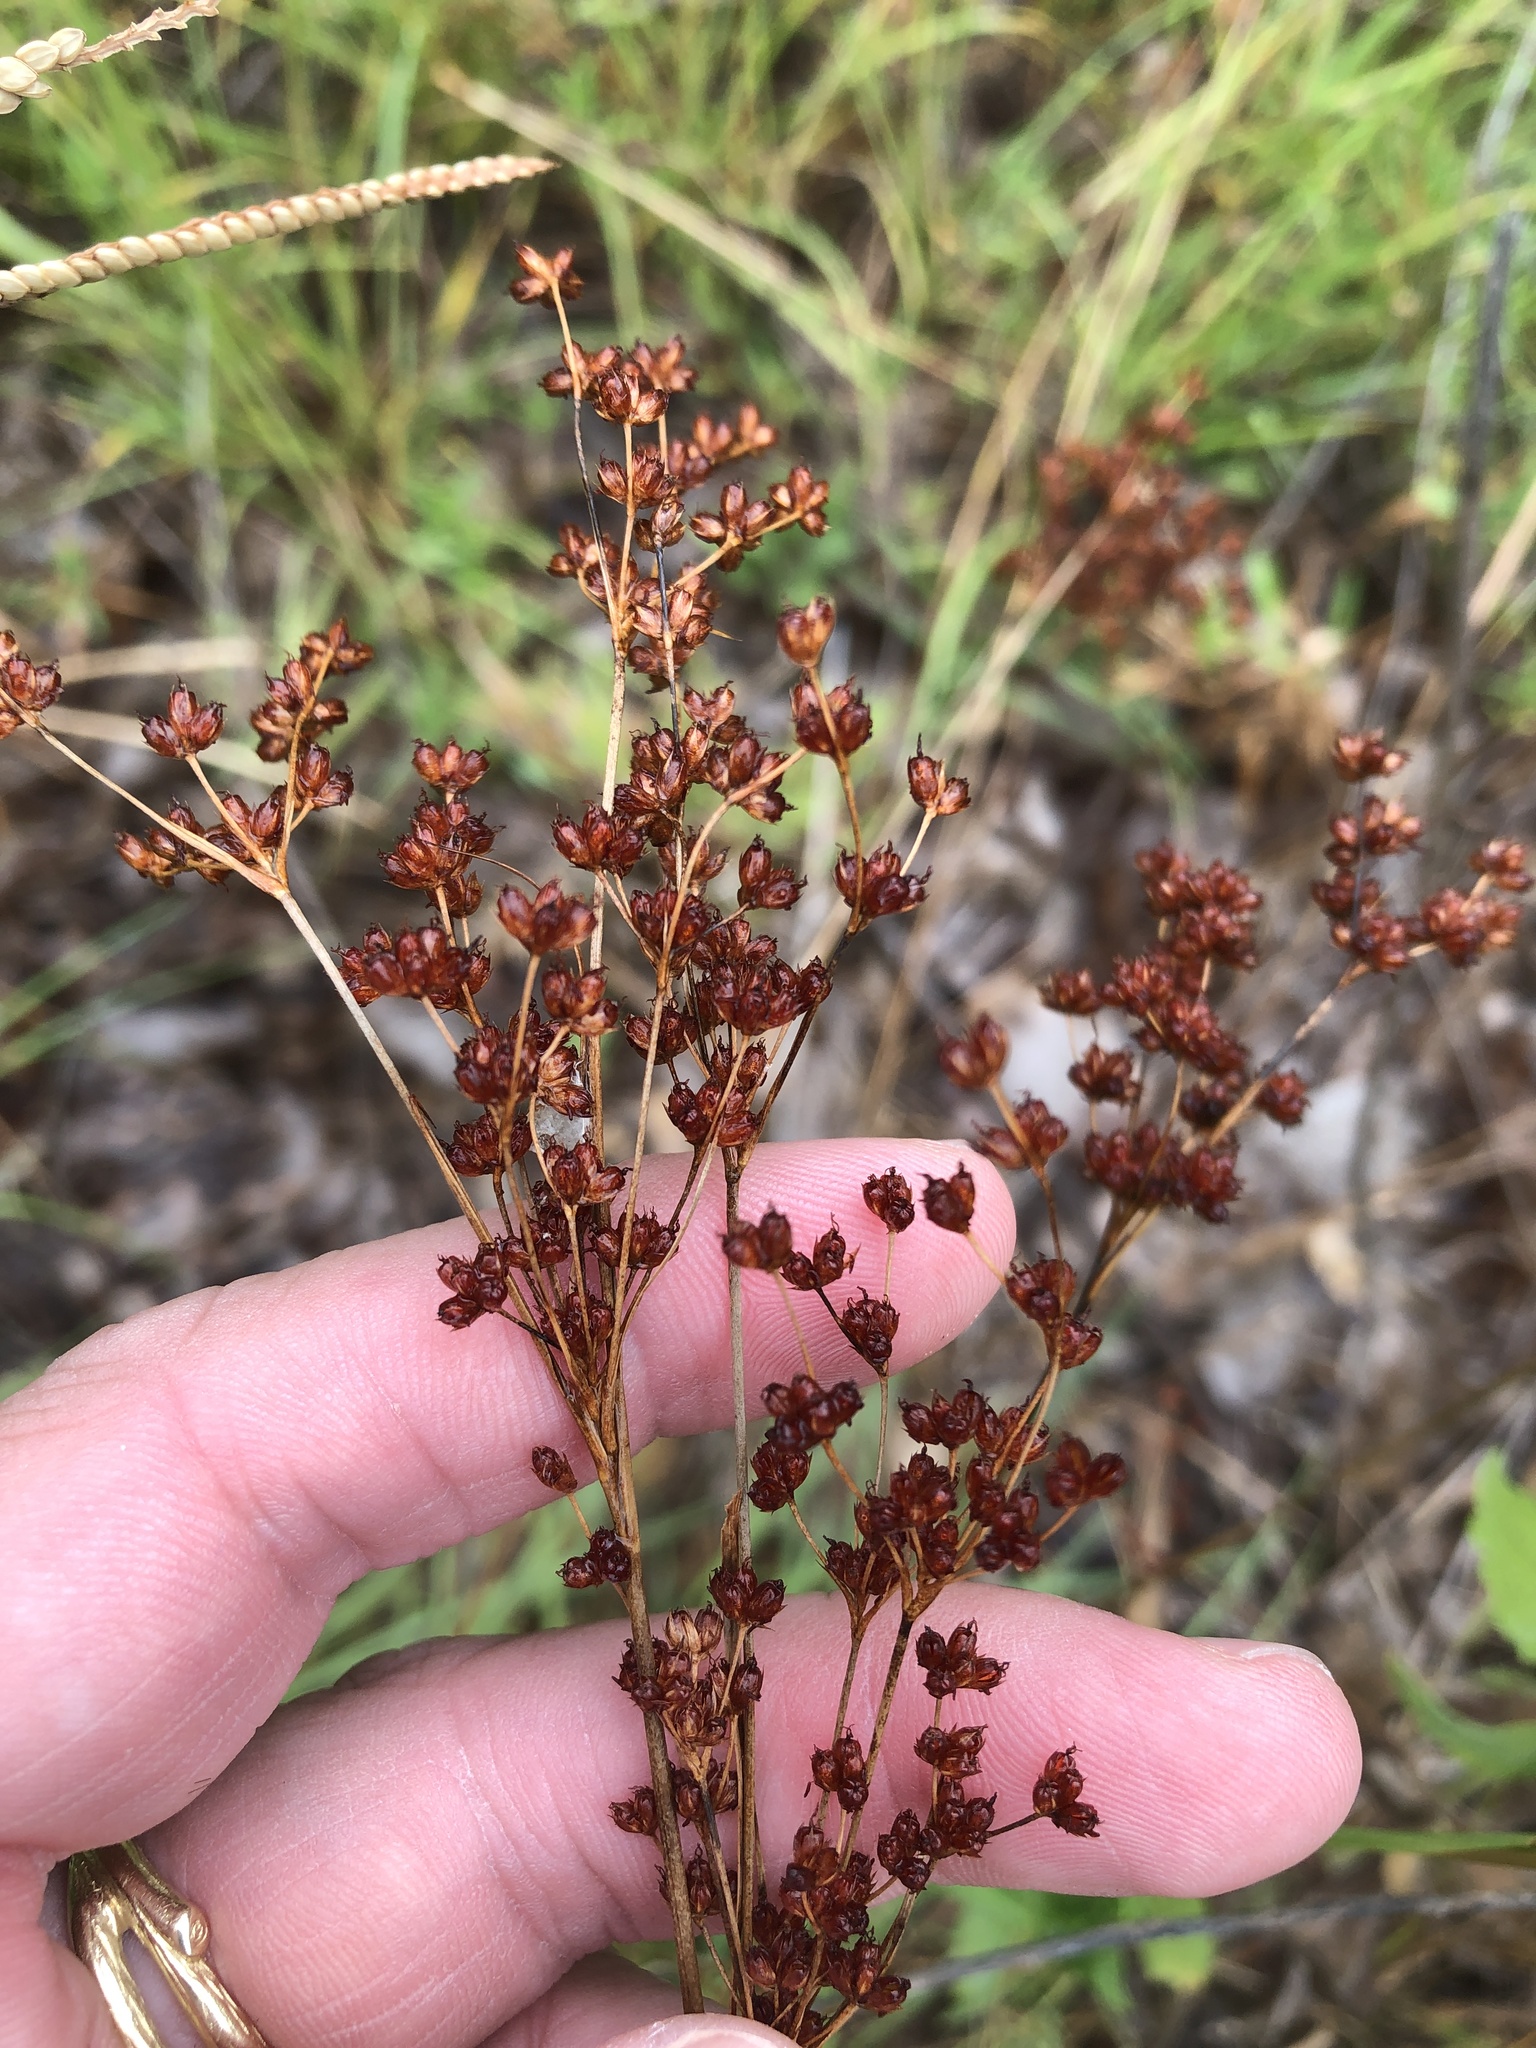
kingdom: Plantae
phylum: Tracheophyta
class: Liliopsida
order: Poales
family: Juncaceae
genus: Juncus
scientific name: Juncus marginatus
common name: Grass-leaf rush
